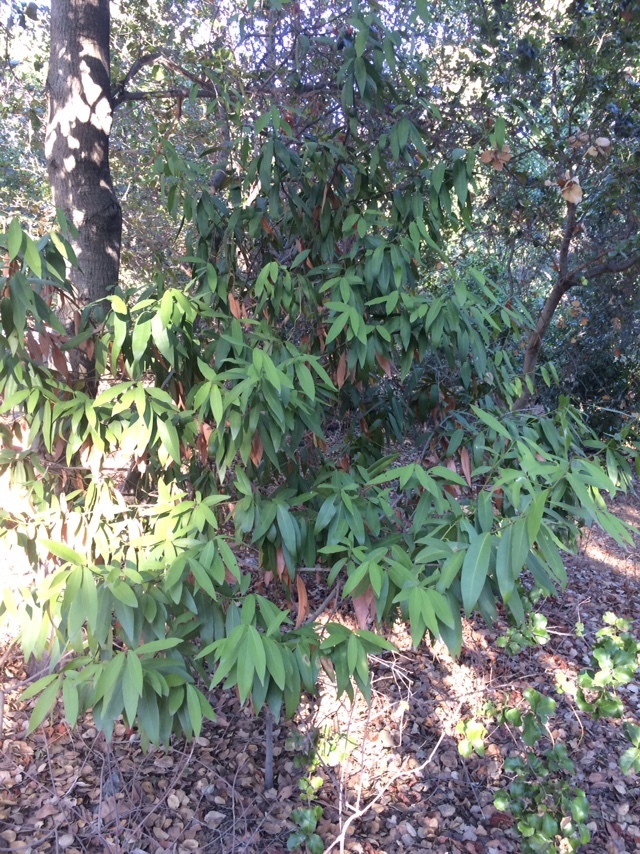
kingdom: Plantae
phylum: Tracheophyta
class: Magnoliopsida
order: Laurales
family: Lauraceae
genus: Umbellularia
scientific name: Umbellularia californica
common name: California bay
